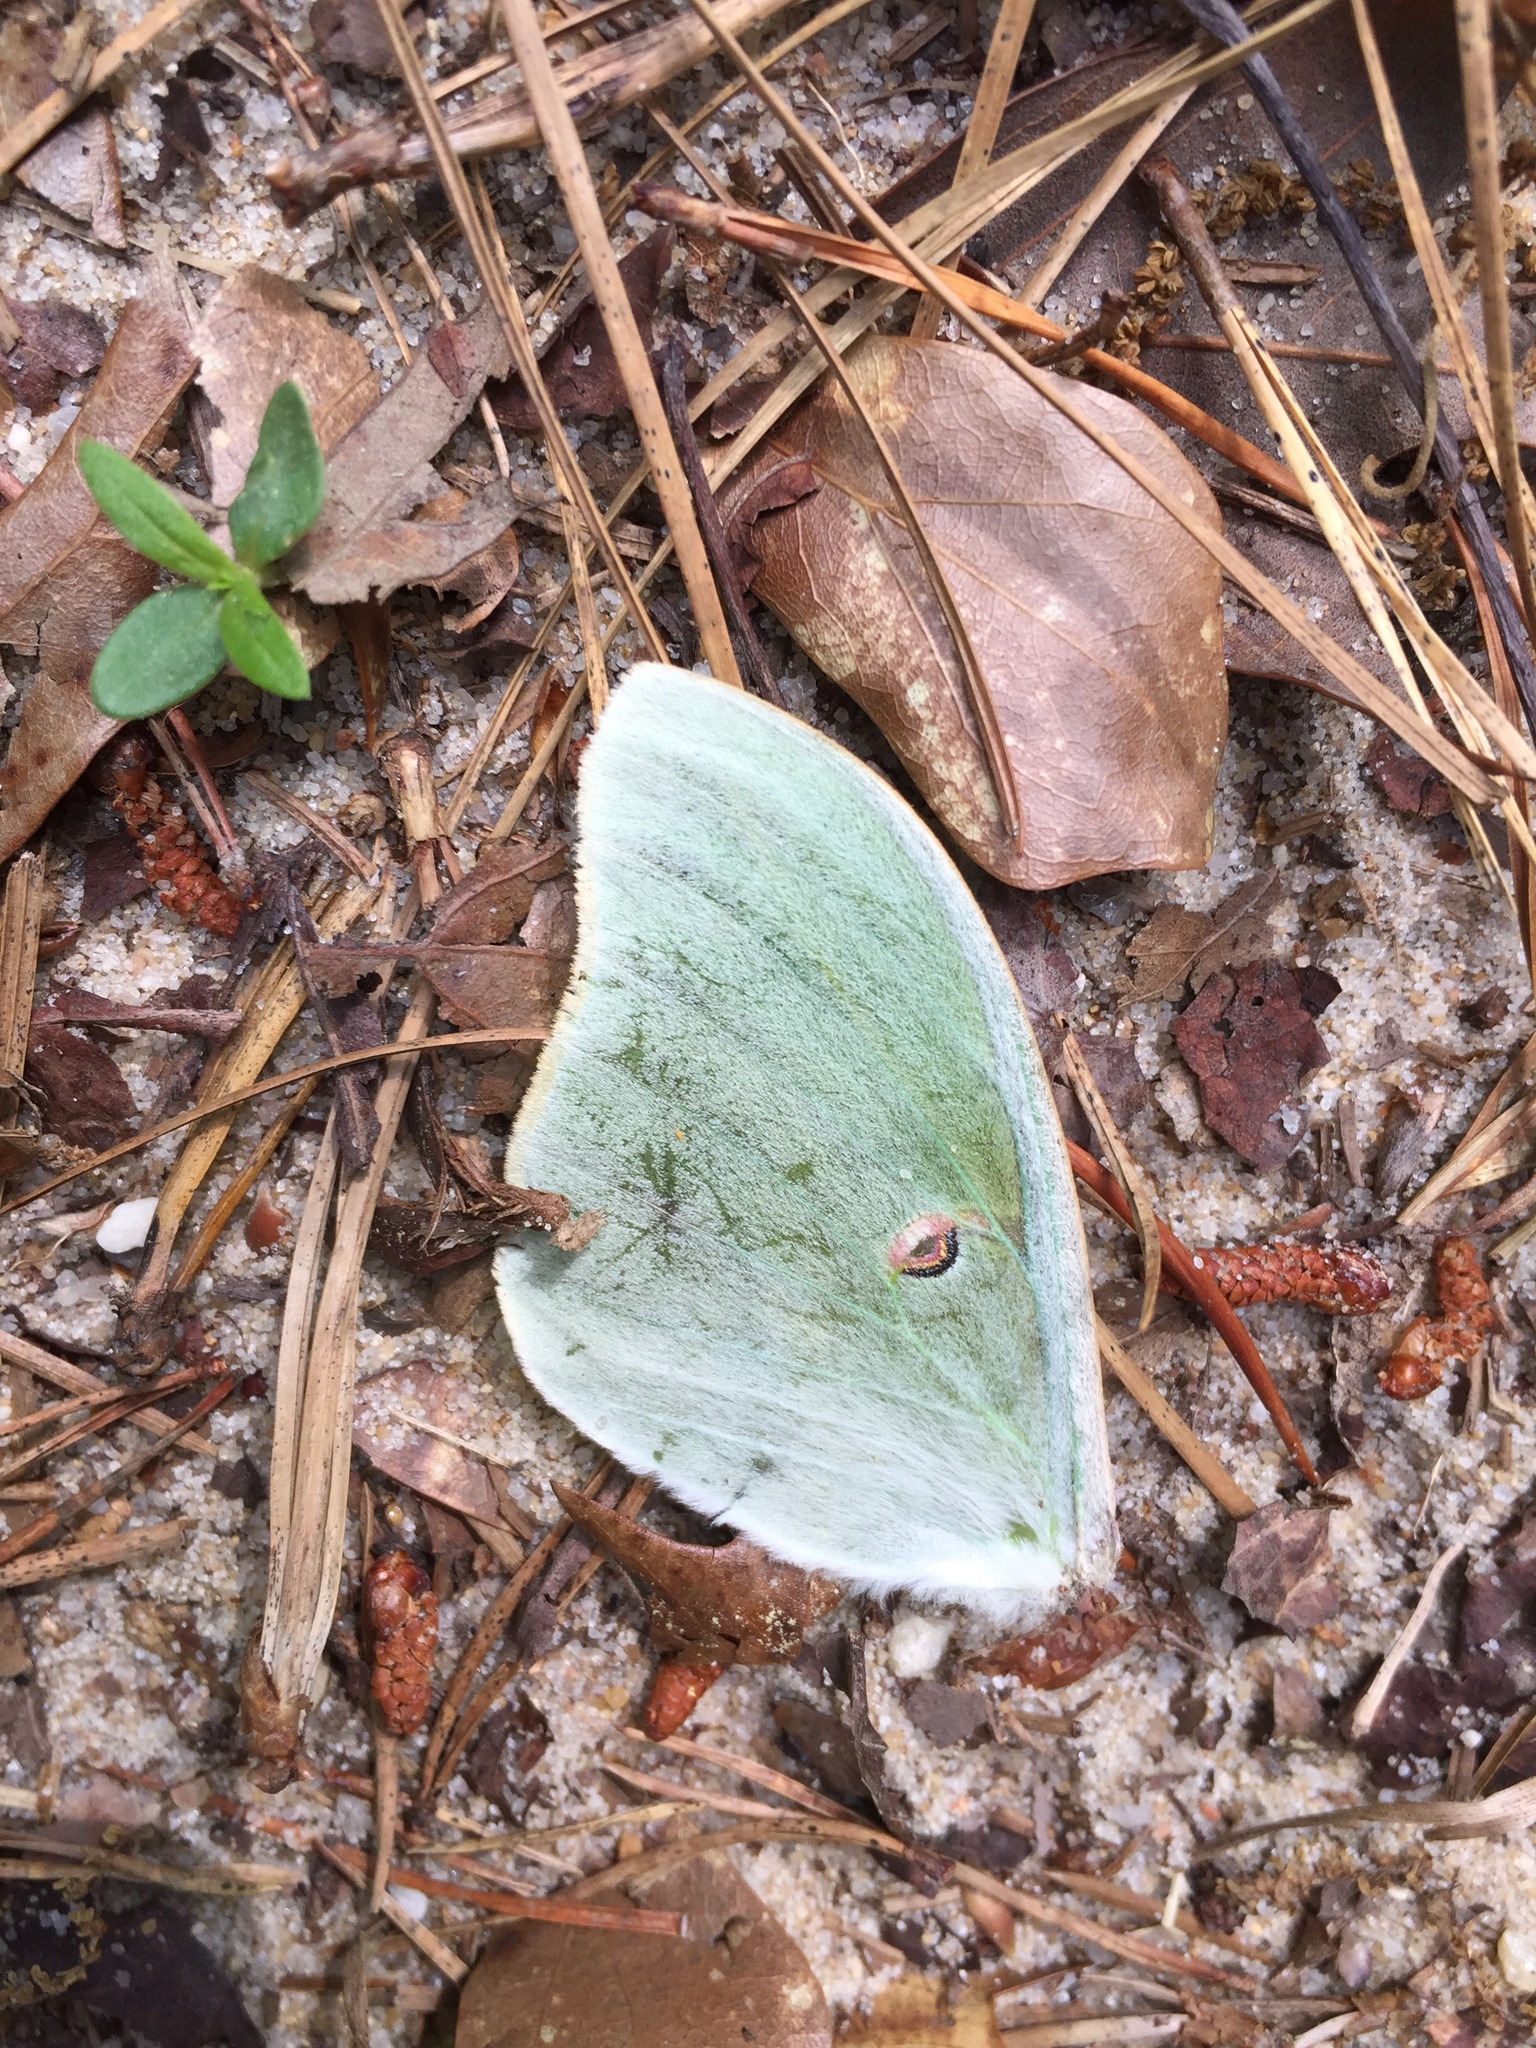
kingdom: Animalia
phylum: Arthropoda
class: Insecta
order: Lepidoptera
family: Saturniidae
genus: Actias
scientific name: Actias luna
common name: Luna moth
